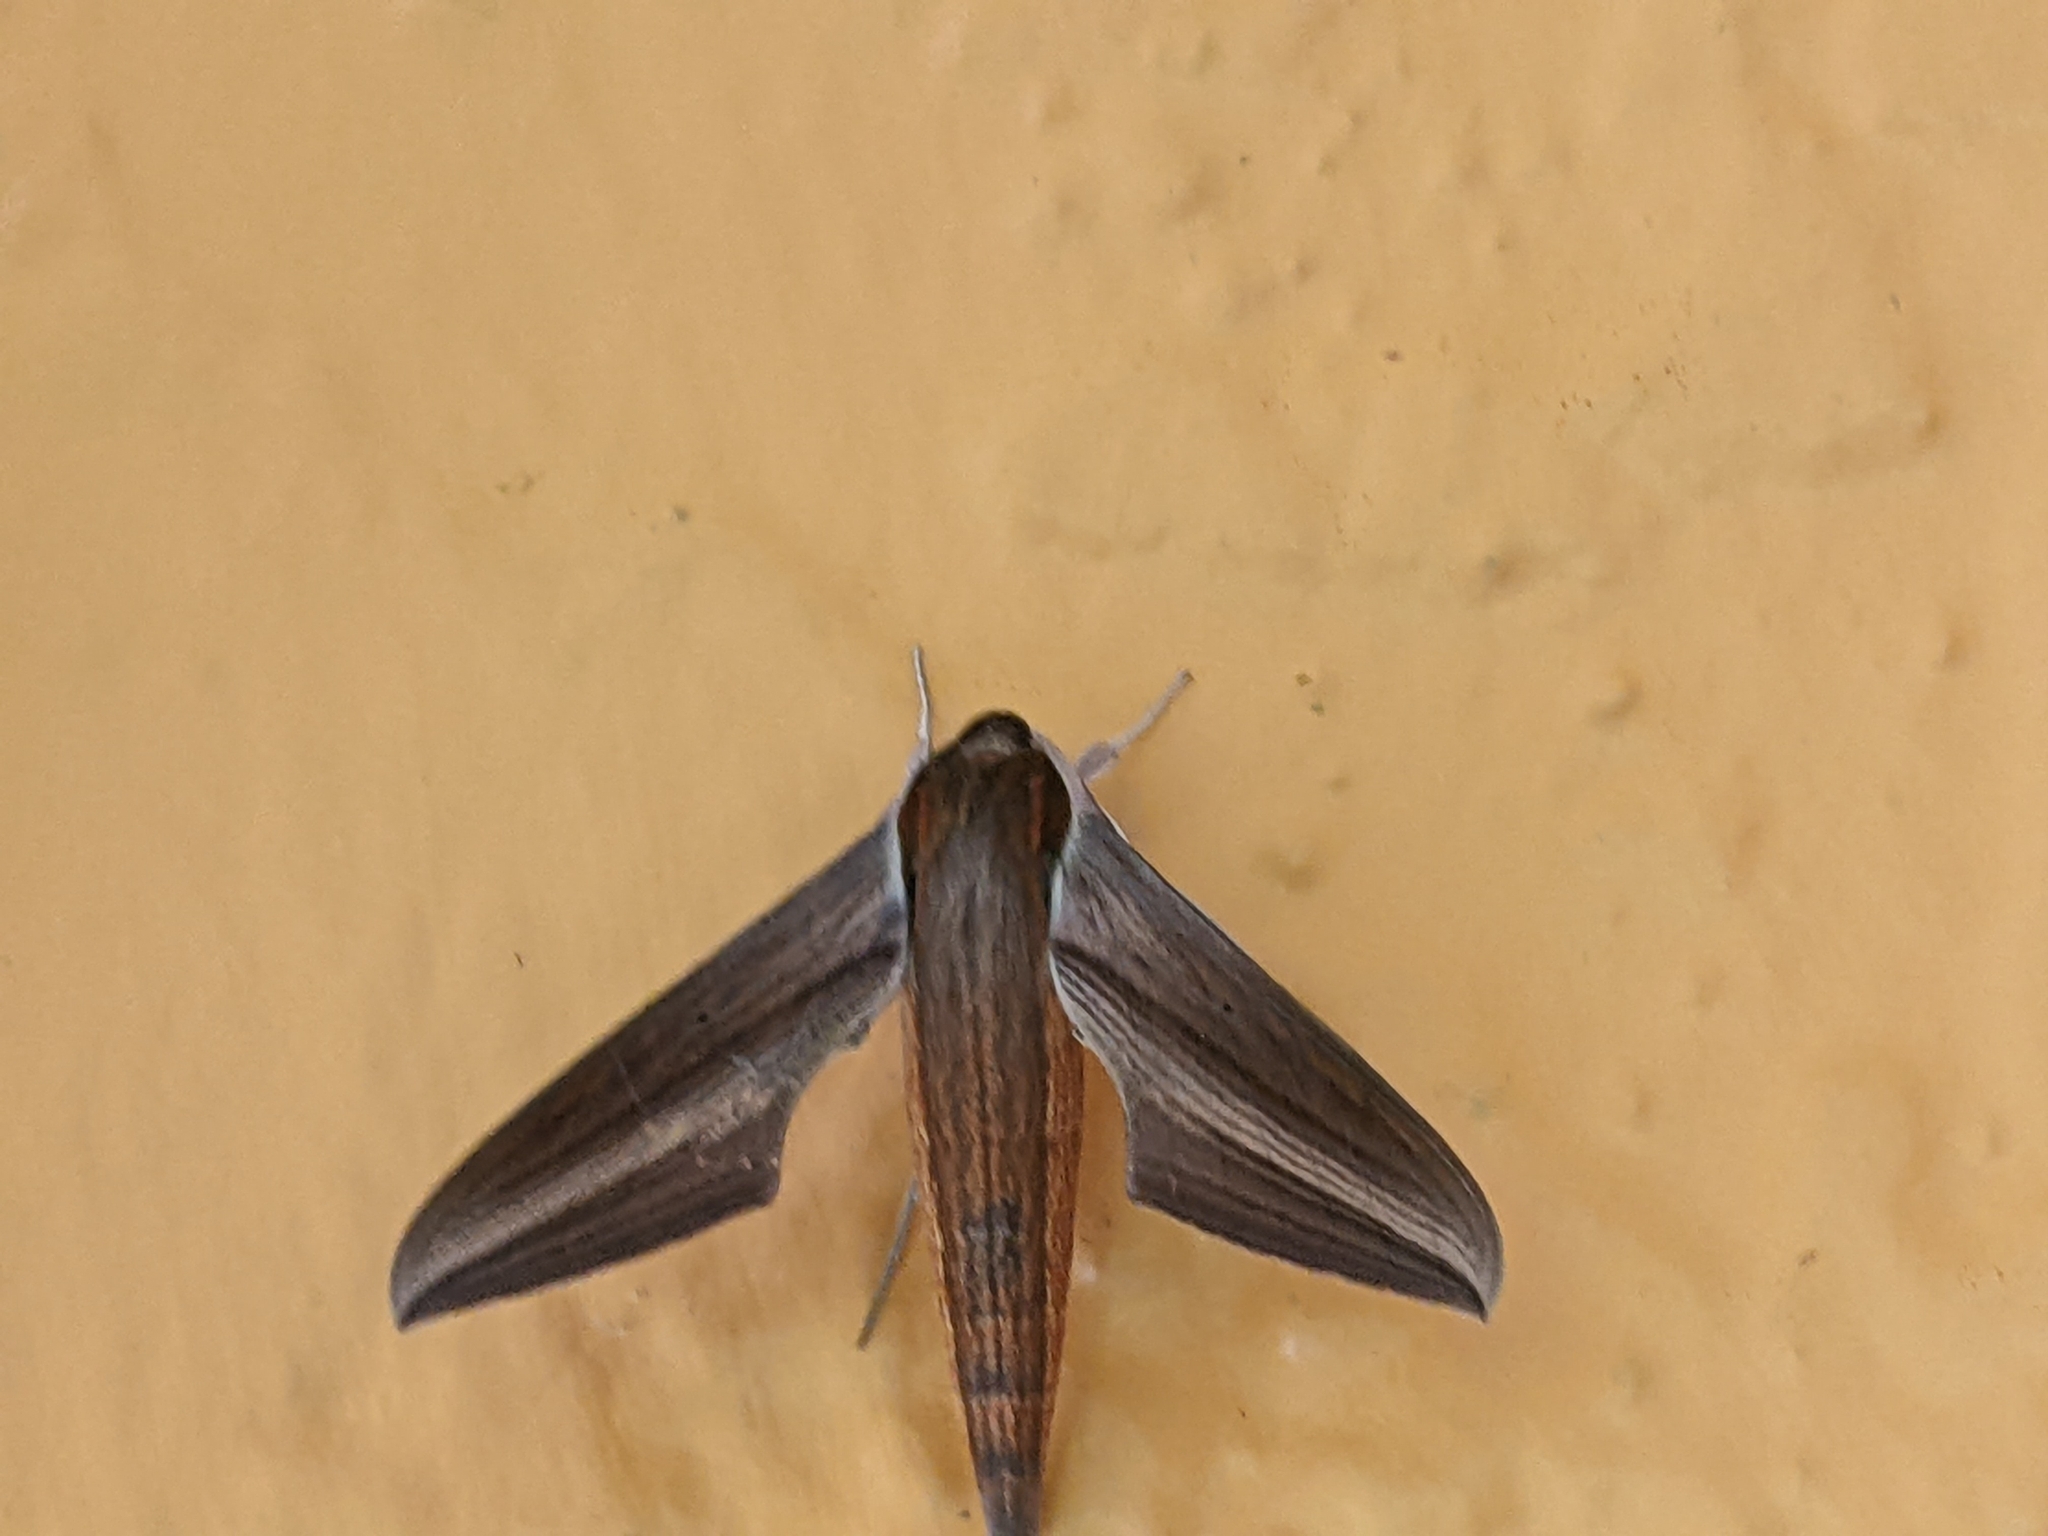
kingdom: Animalia
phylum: Arthropoda
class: Insecta
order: Lepidoptera
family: Sphingidae
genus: Xylophanes
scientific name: Xylophanes tersa
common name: Tersa sphinx
